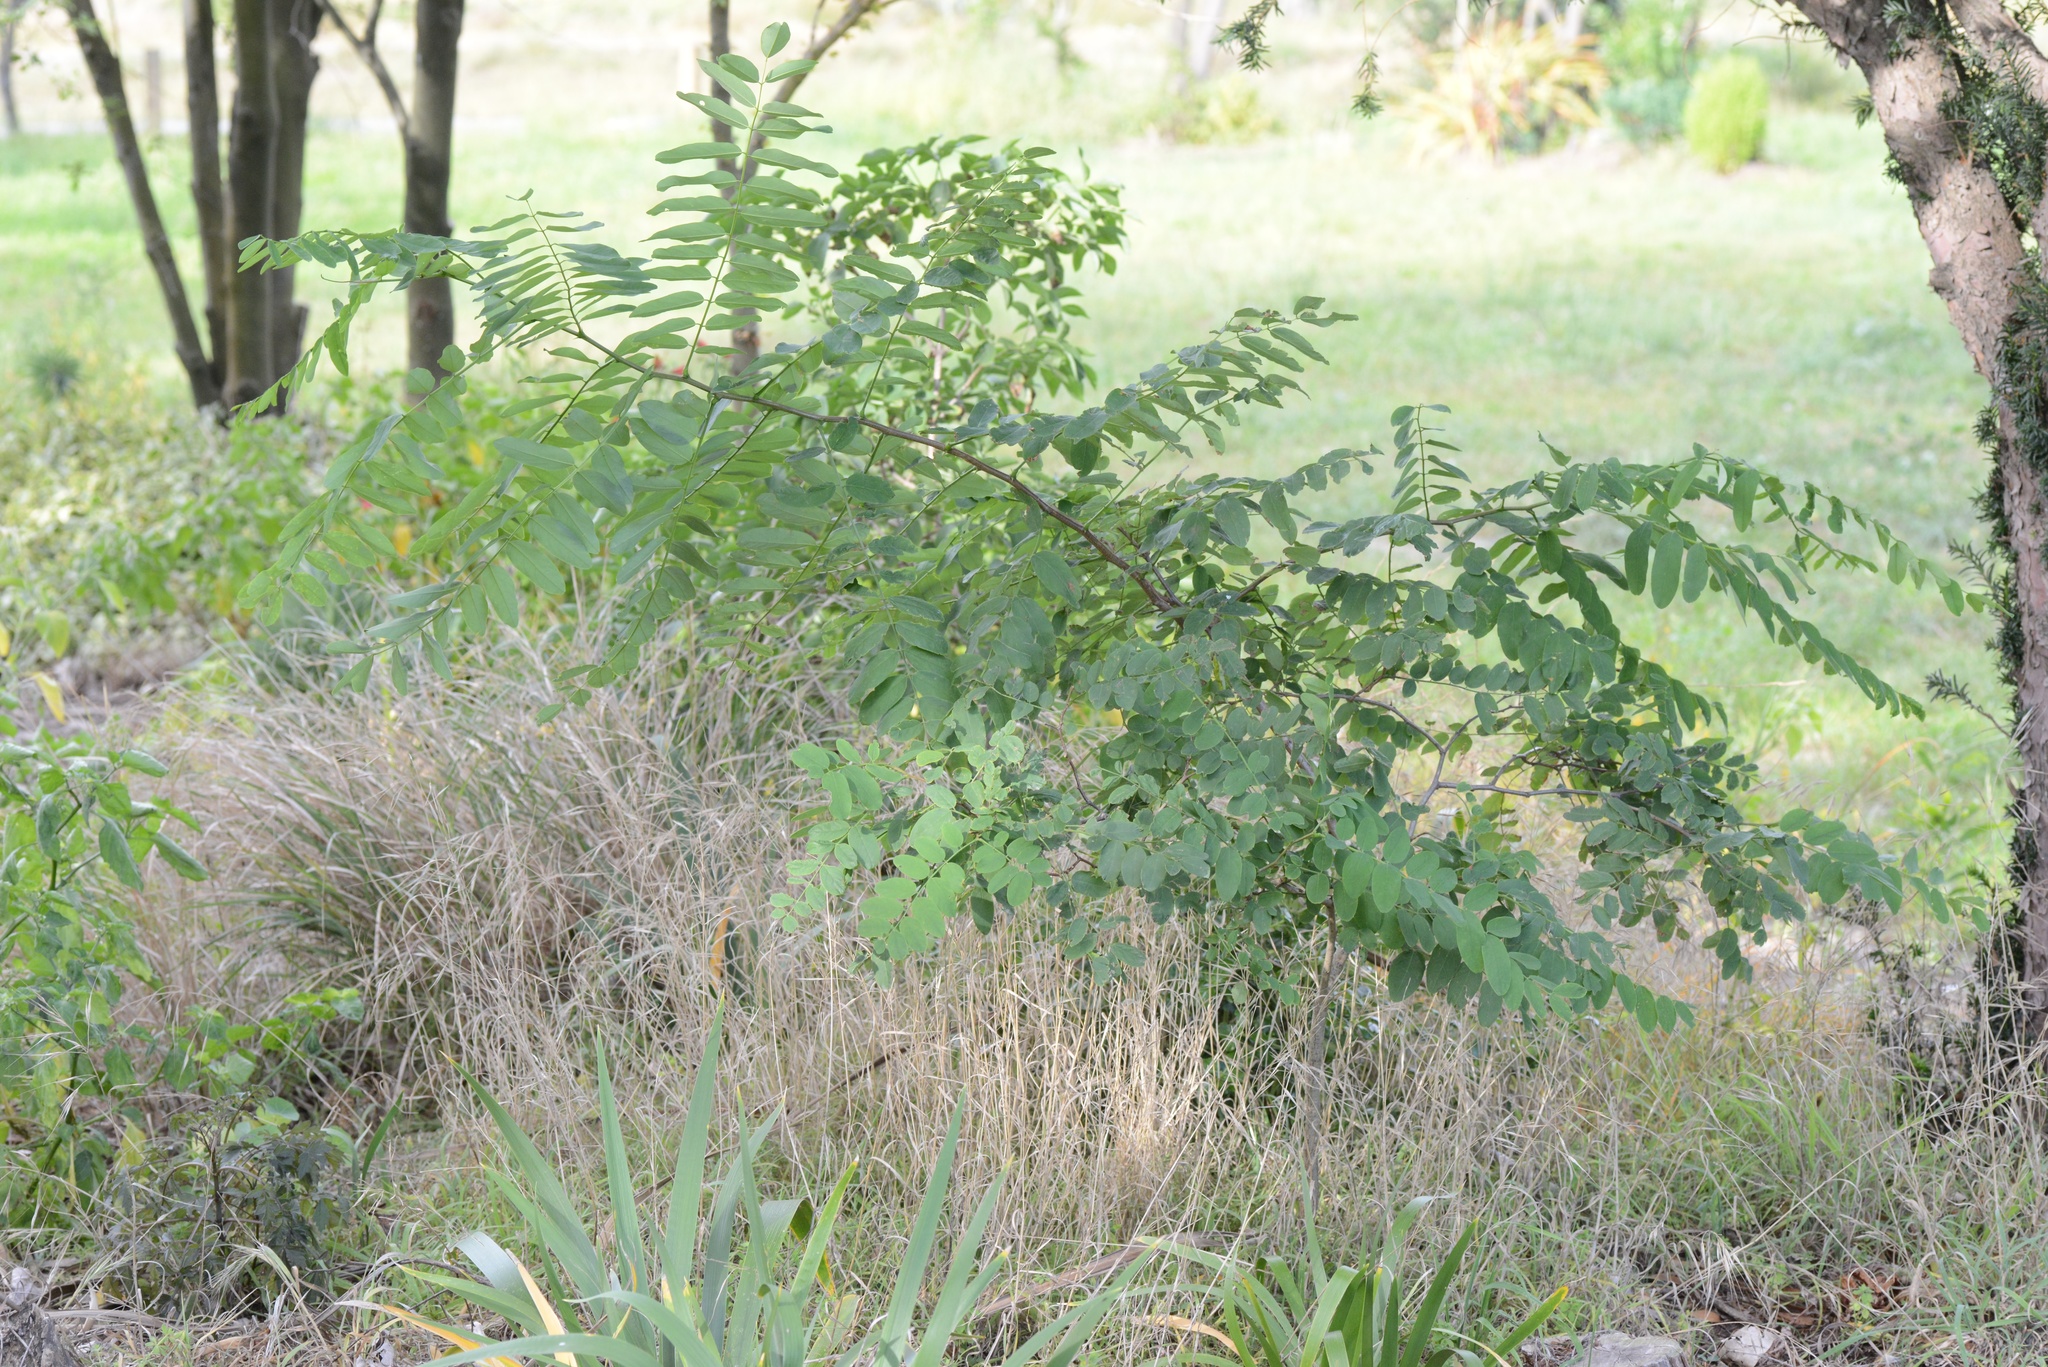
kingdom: Plantae
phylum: Tracheophyta
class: Magnoliopsida
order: Fabales
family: Fabaceae
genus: Robinia
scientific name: Robinia pseudoacacia
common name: Black locust
